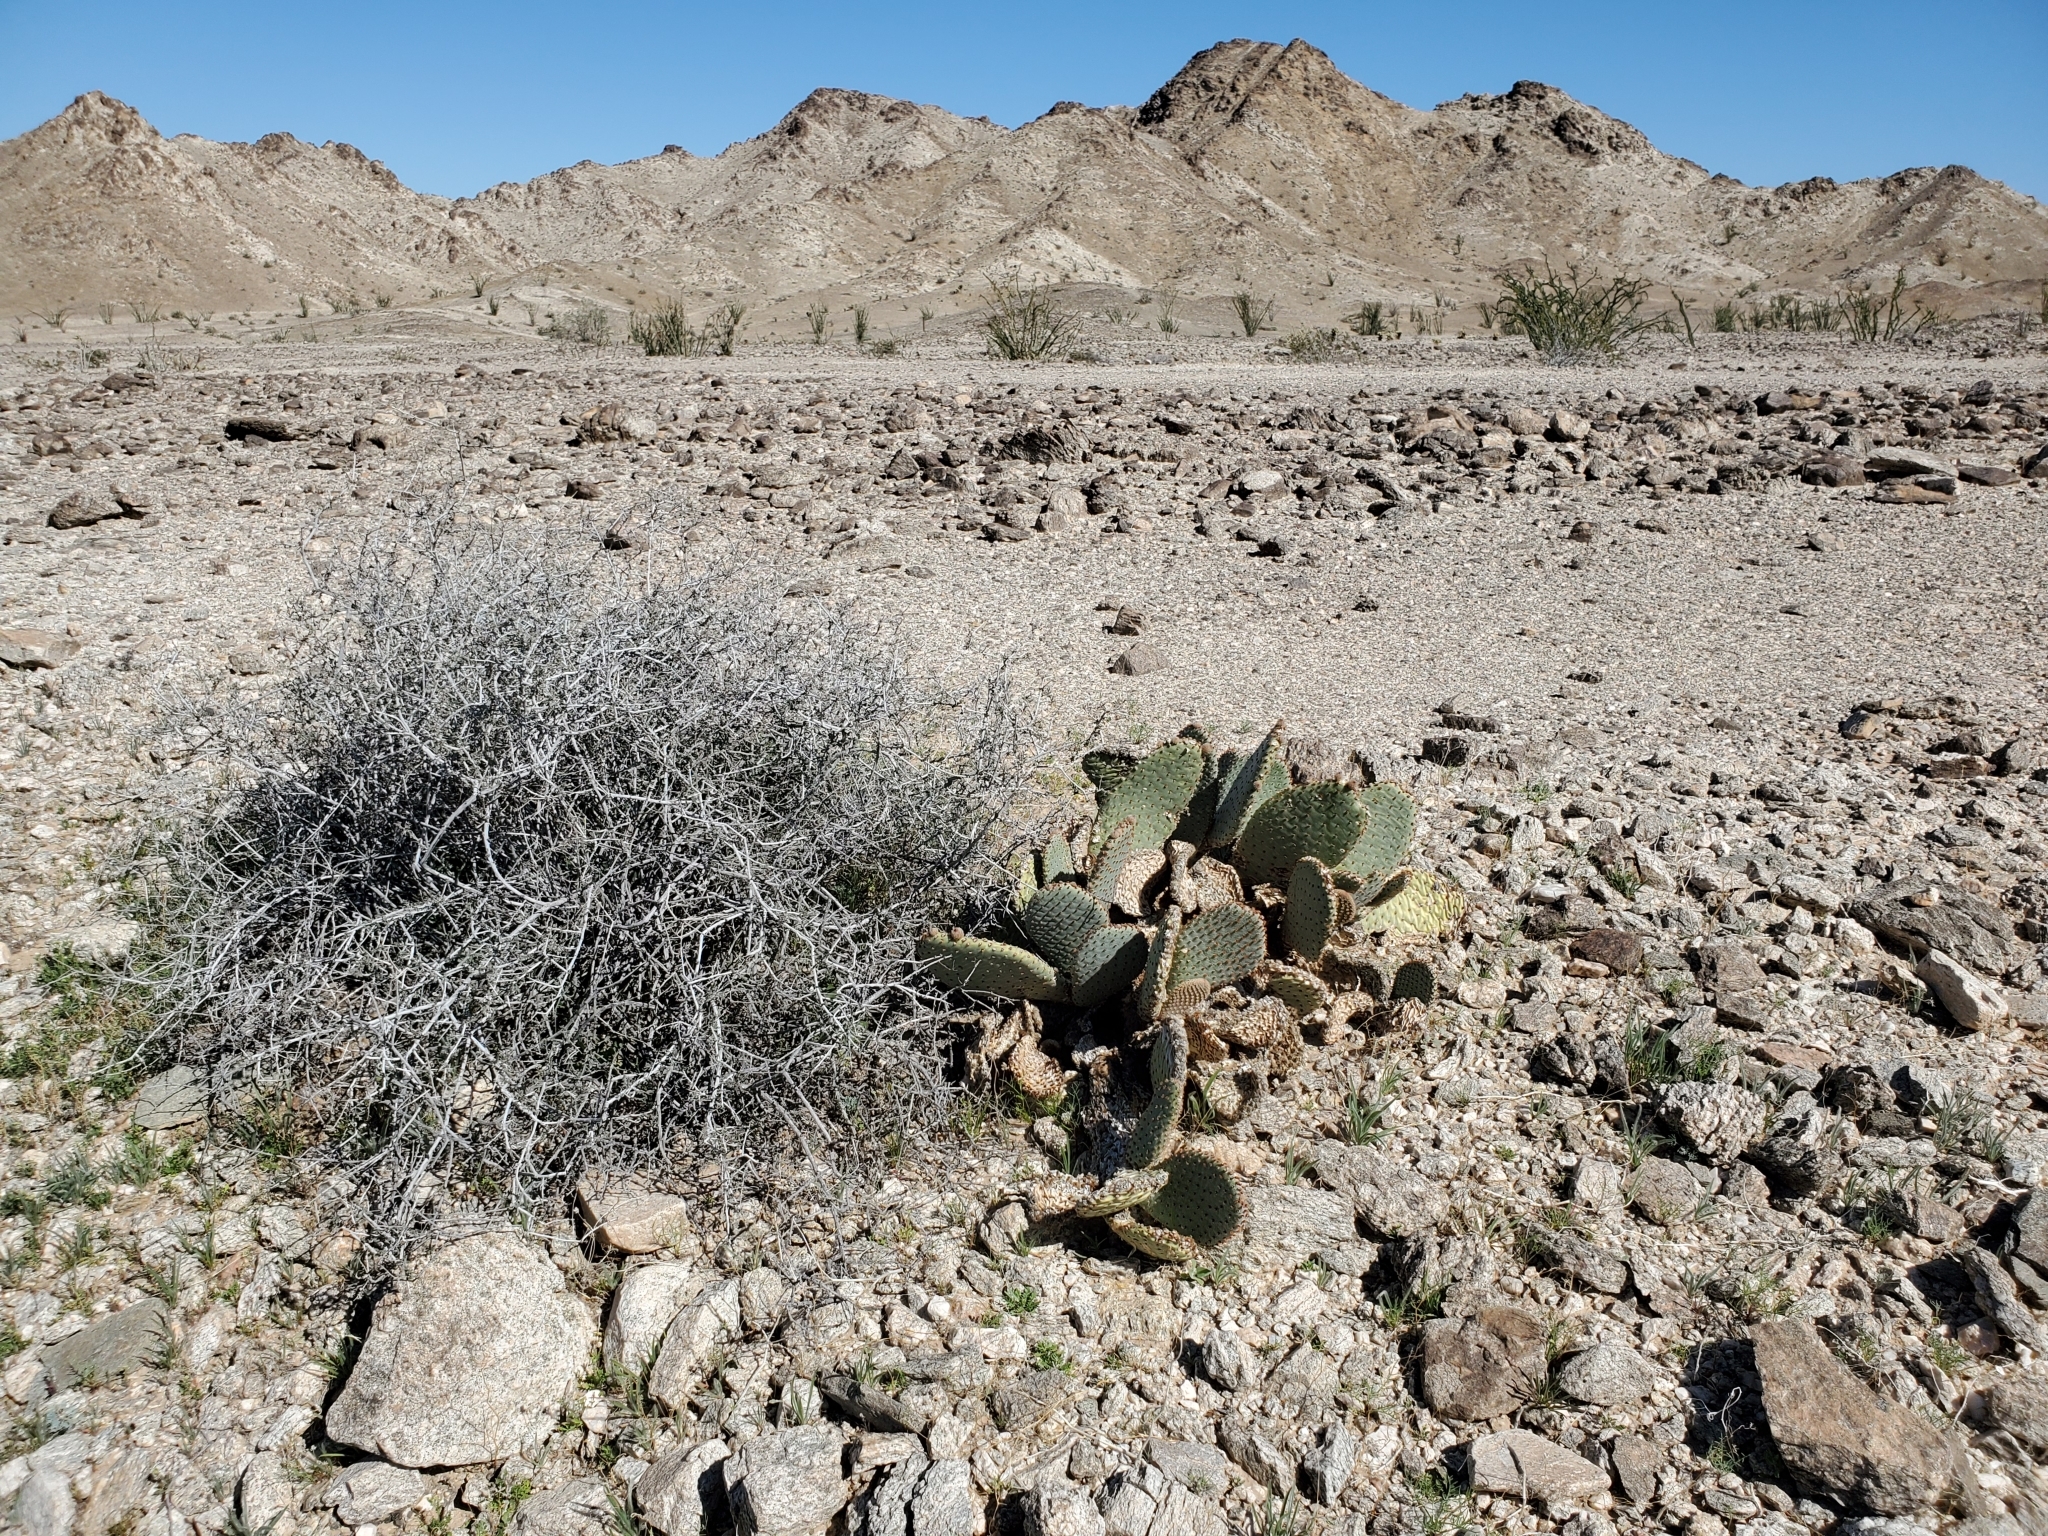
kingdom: Plantae
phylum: Tracheophyta
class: Magnoliopsida
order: Caryophyllales
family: Cactaceae
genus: Opuntia
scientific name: Opuntia basilaris
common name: Beavertail prickly-pear
